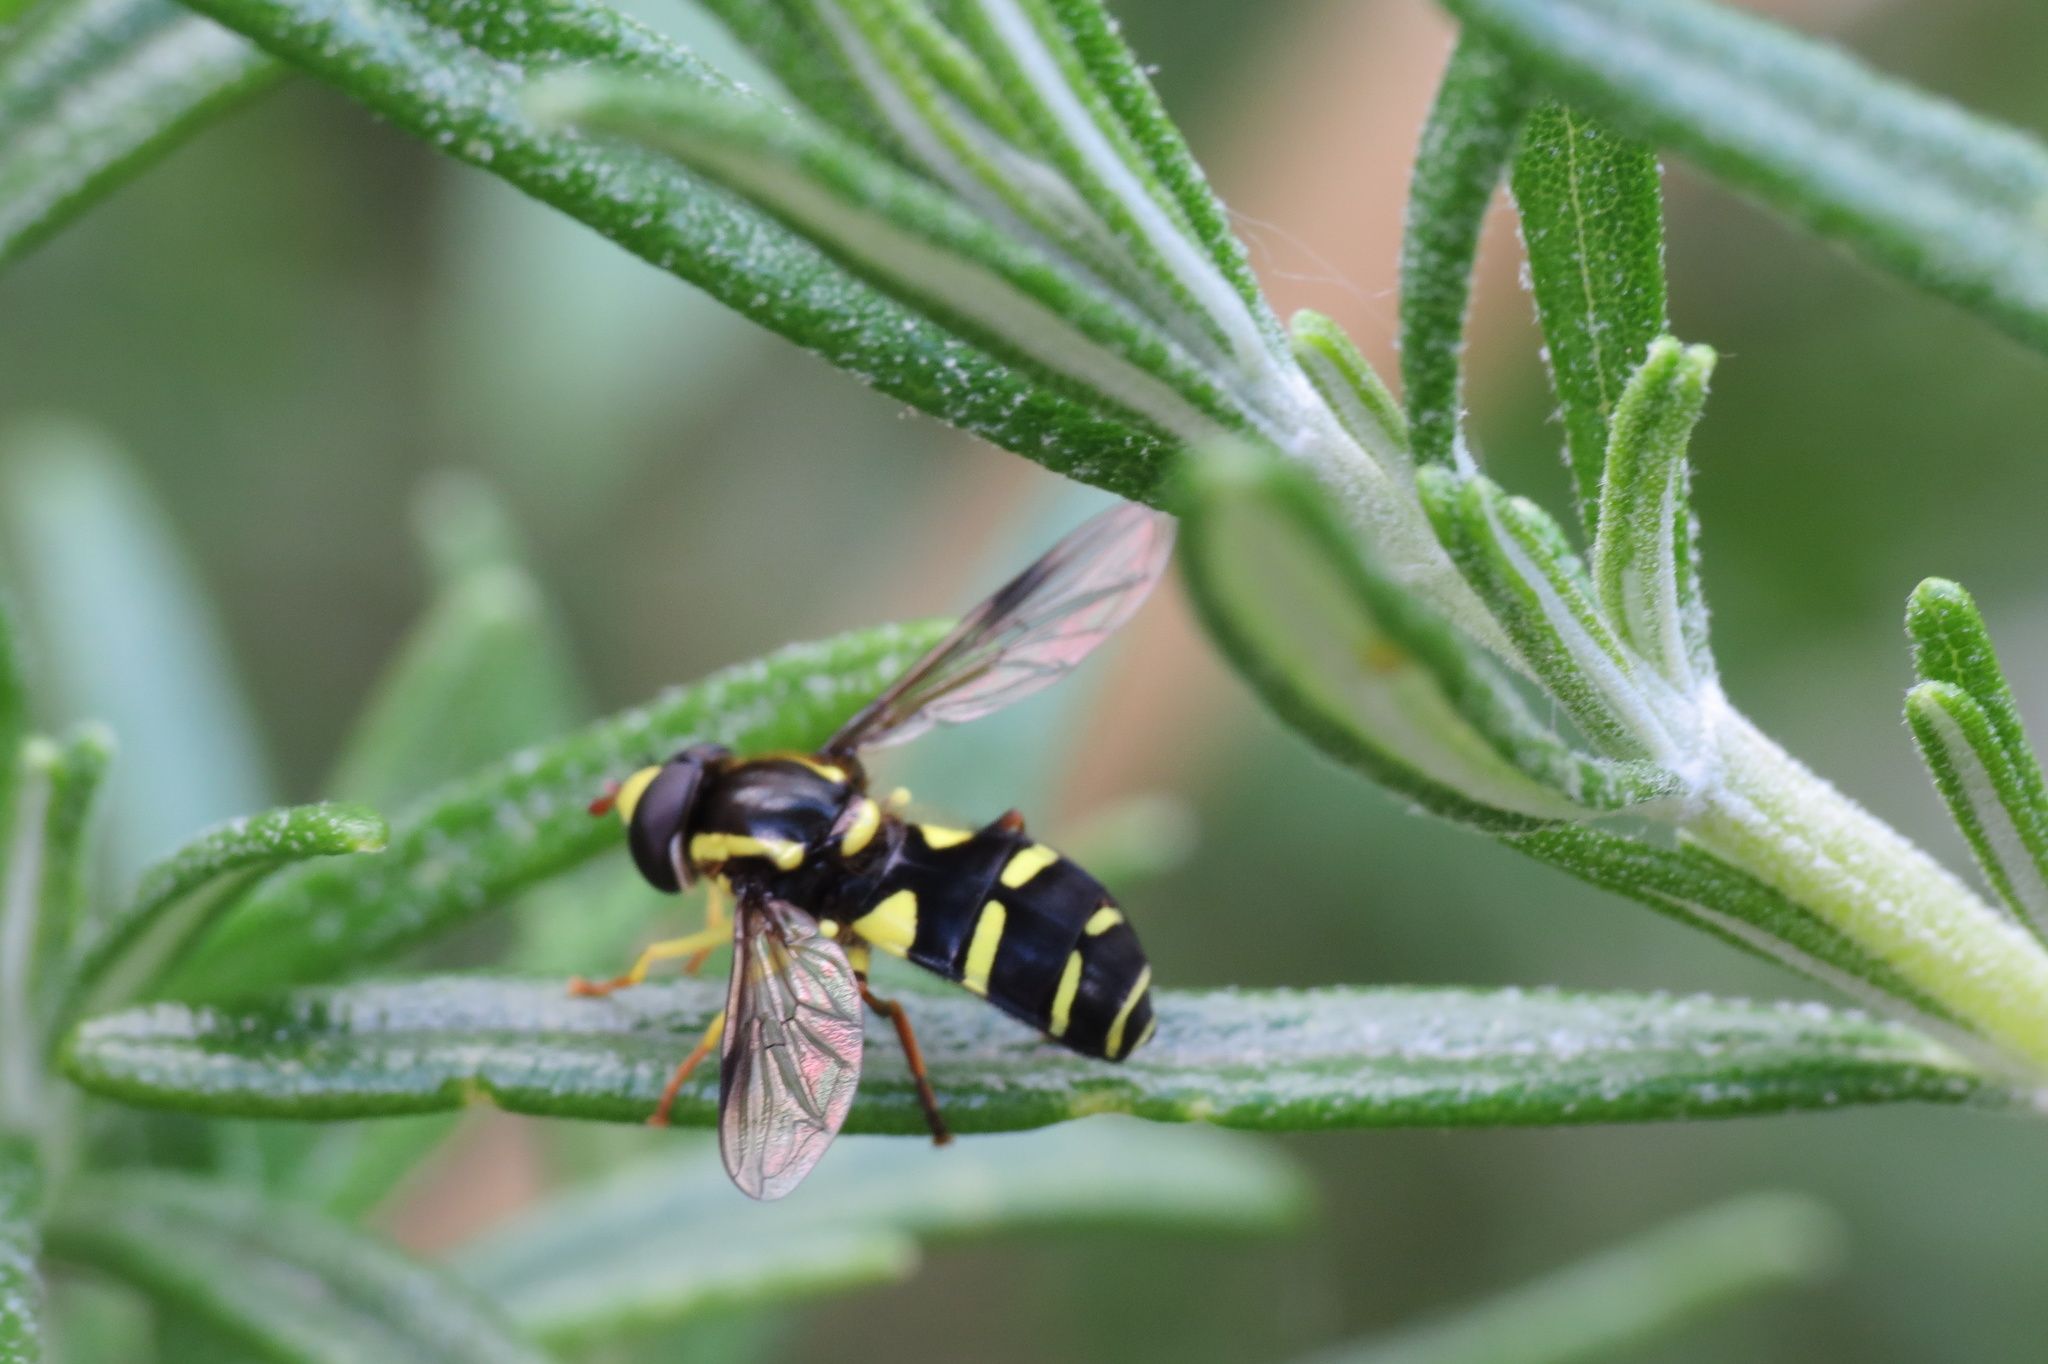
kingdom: Animalia
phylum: Arthropoda
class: Insecta
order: Diptera
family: Syrphidae
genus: Xanthogramma
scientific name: Xanthogramma
